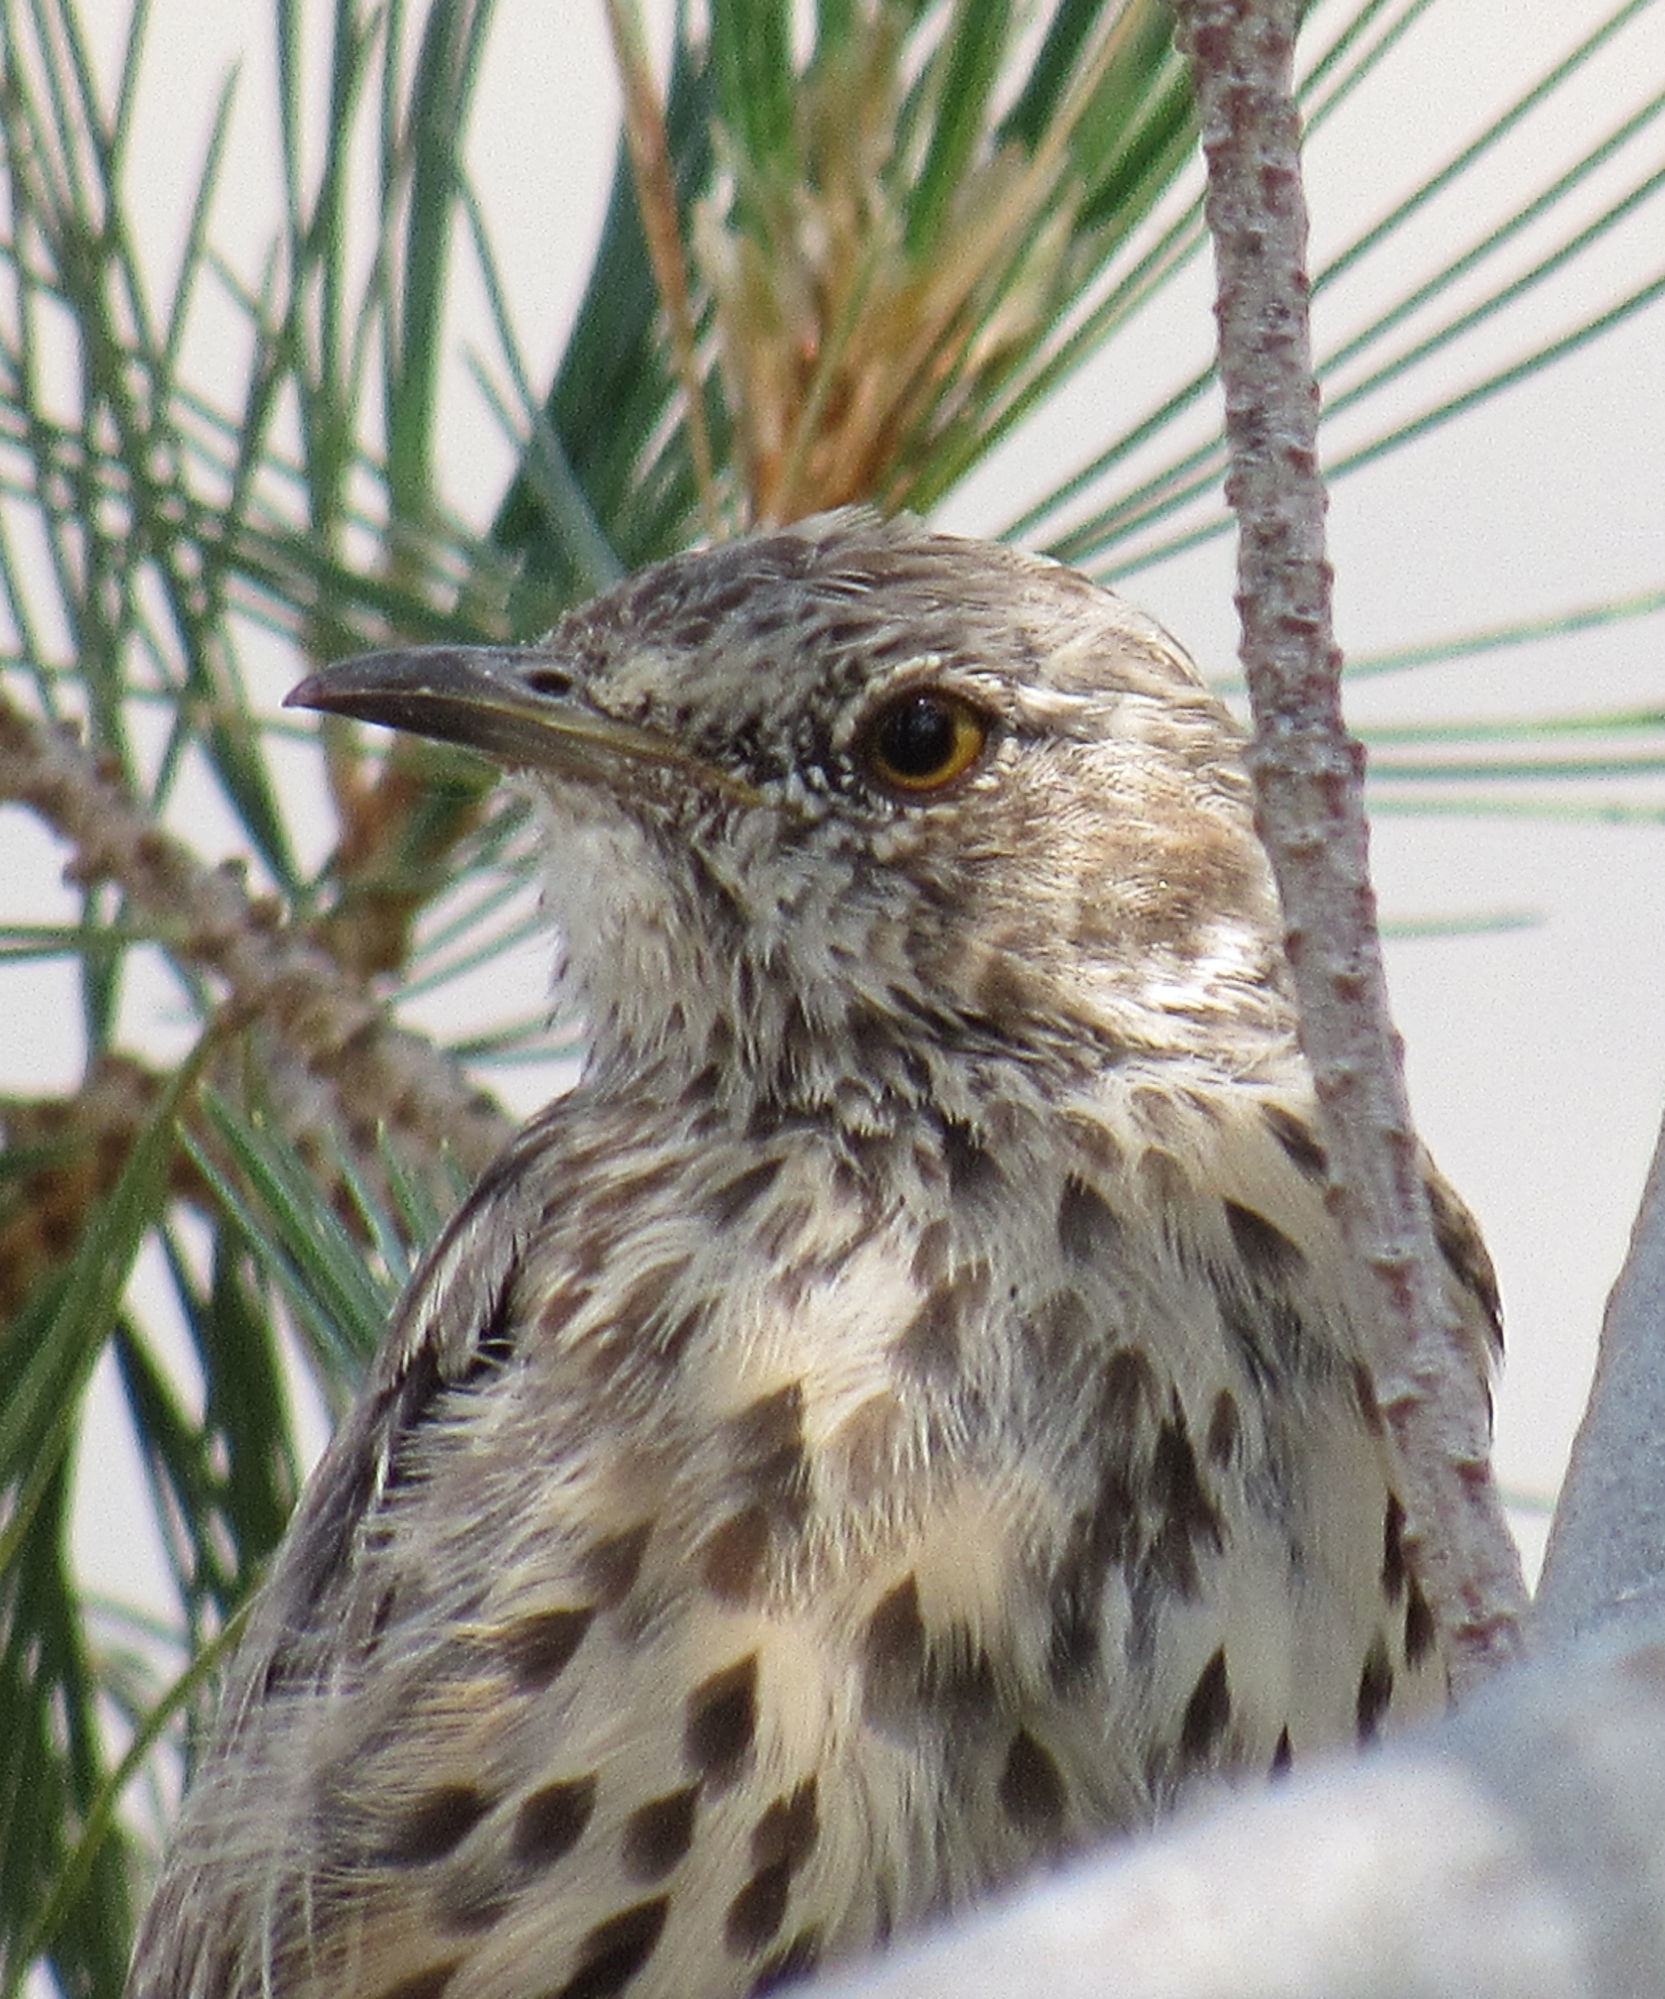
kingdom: Animalia
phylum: Chordata
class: Aves
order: Passeriformes
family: Mimidae
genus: Oreoscoptes
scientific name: Oreoscoptes montanus
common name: Sage thrasher
